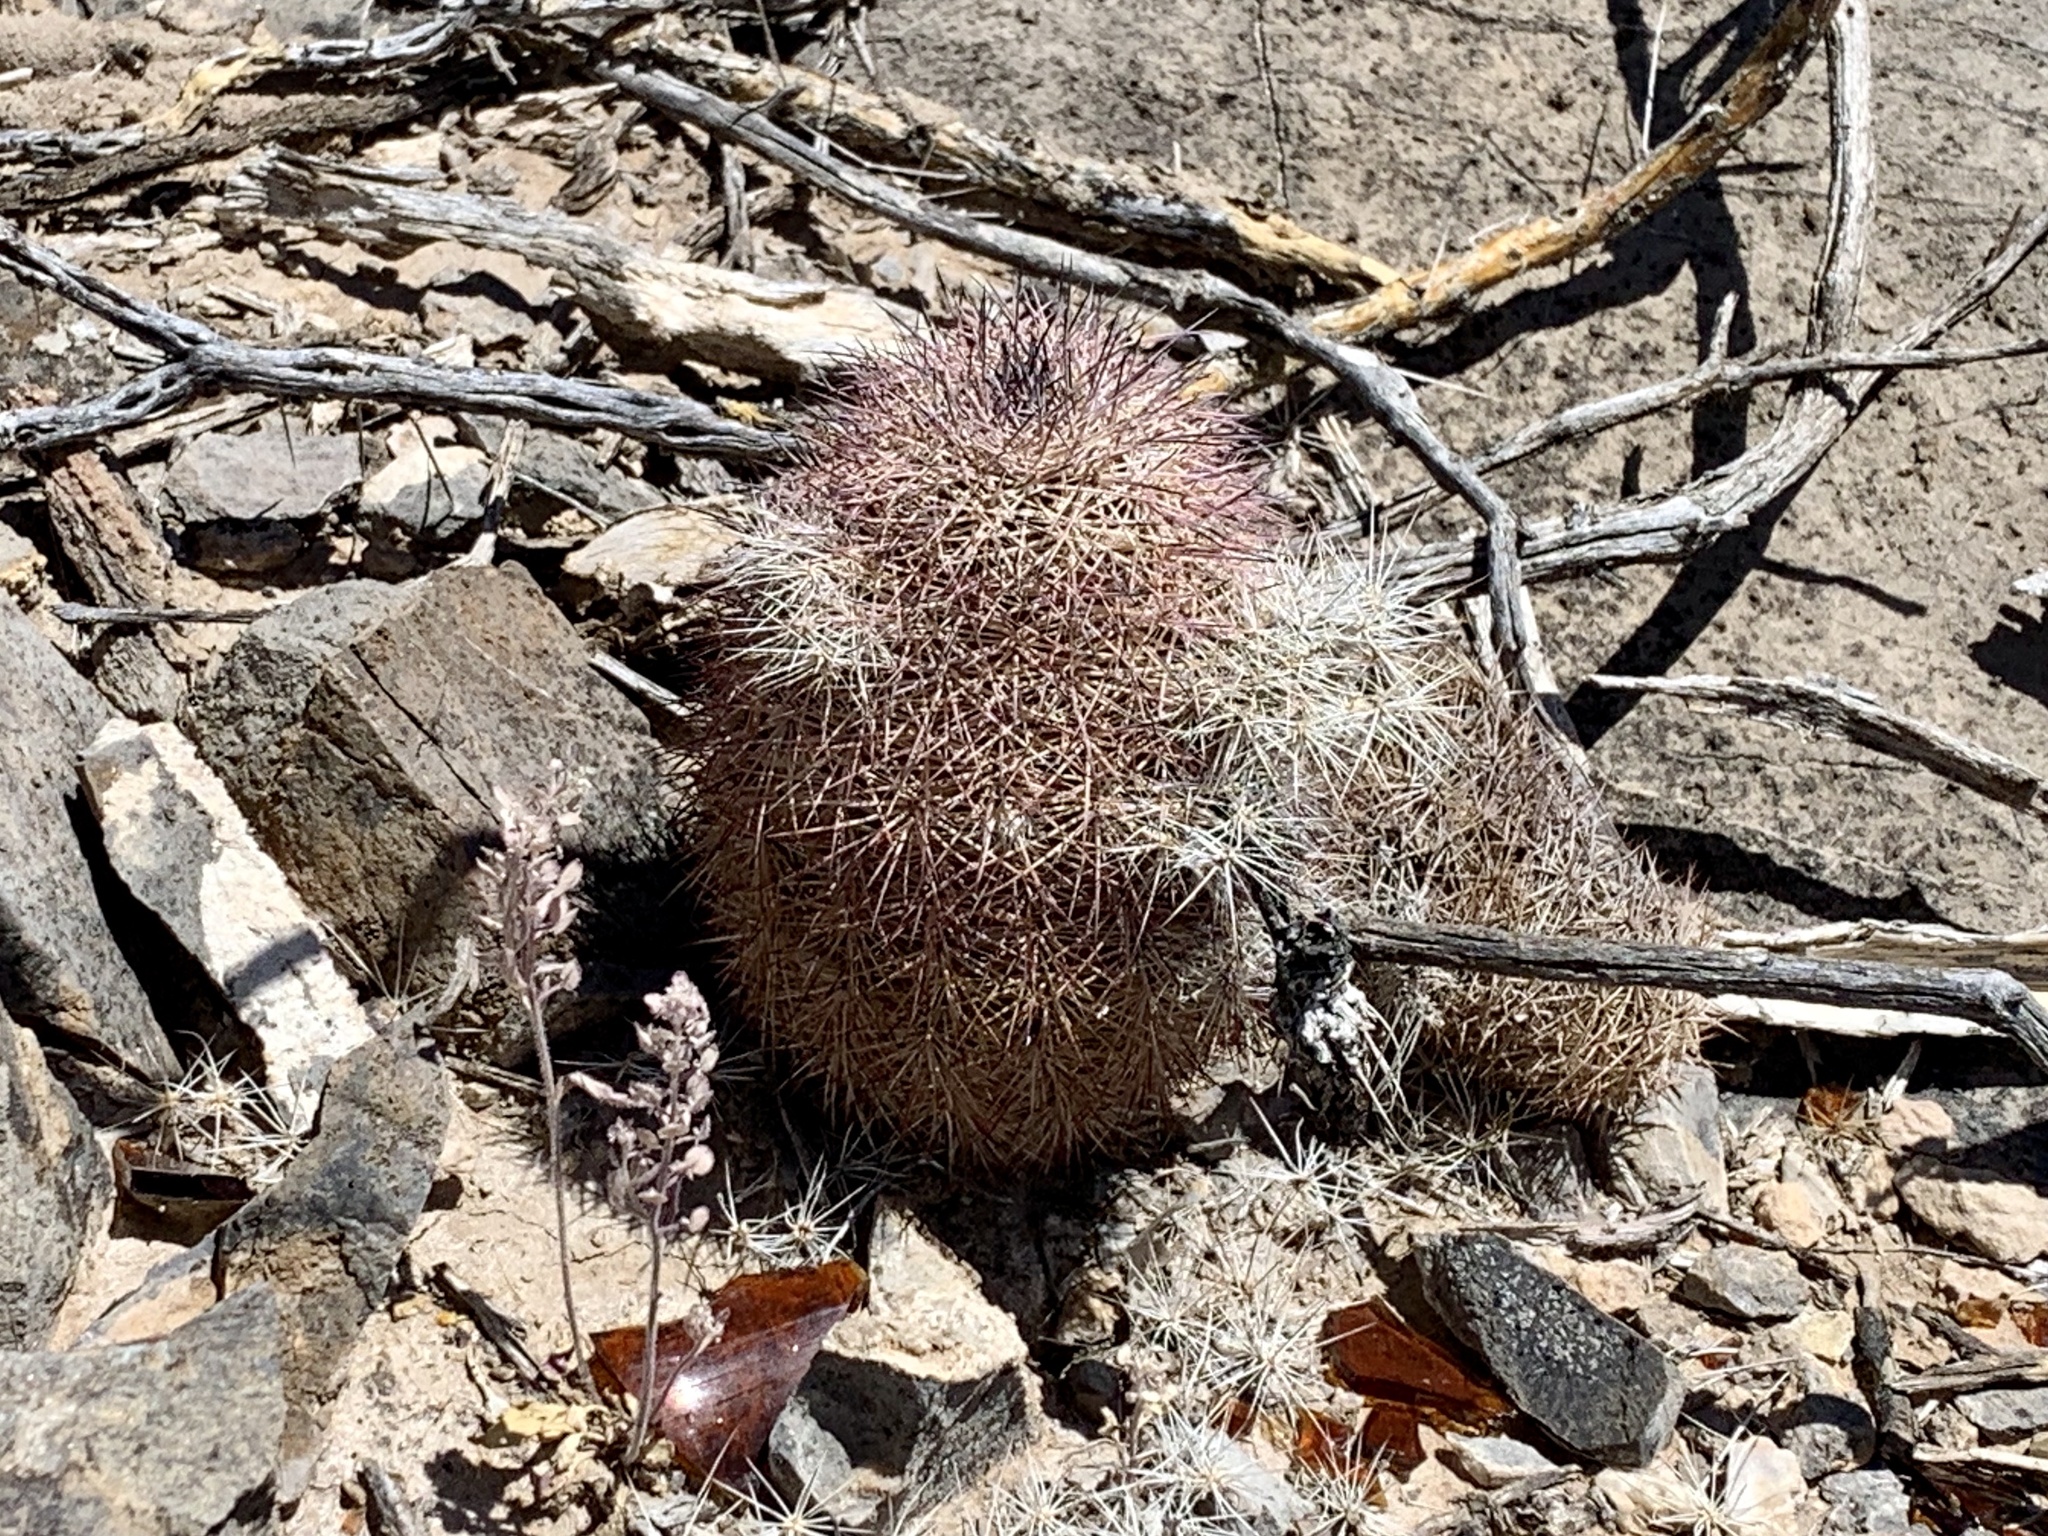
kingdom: Plantae
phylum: Tracheophyta
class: Magnoliopsida
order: Caryophyllales
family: Cactaceae
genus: Echinocereus
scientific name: Echinocereus dasyacanthus
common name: Spiny hedgehog cactus
